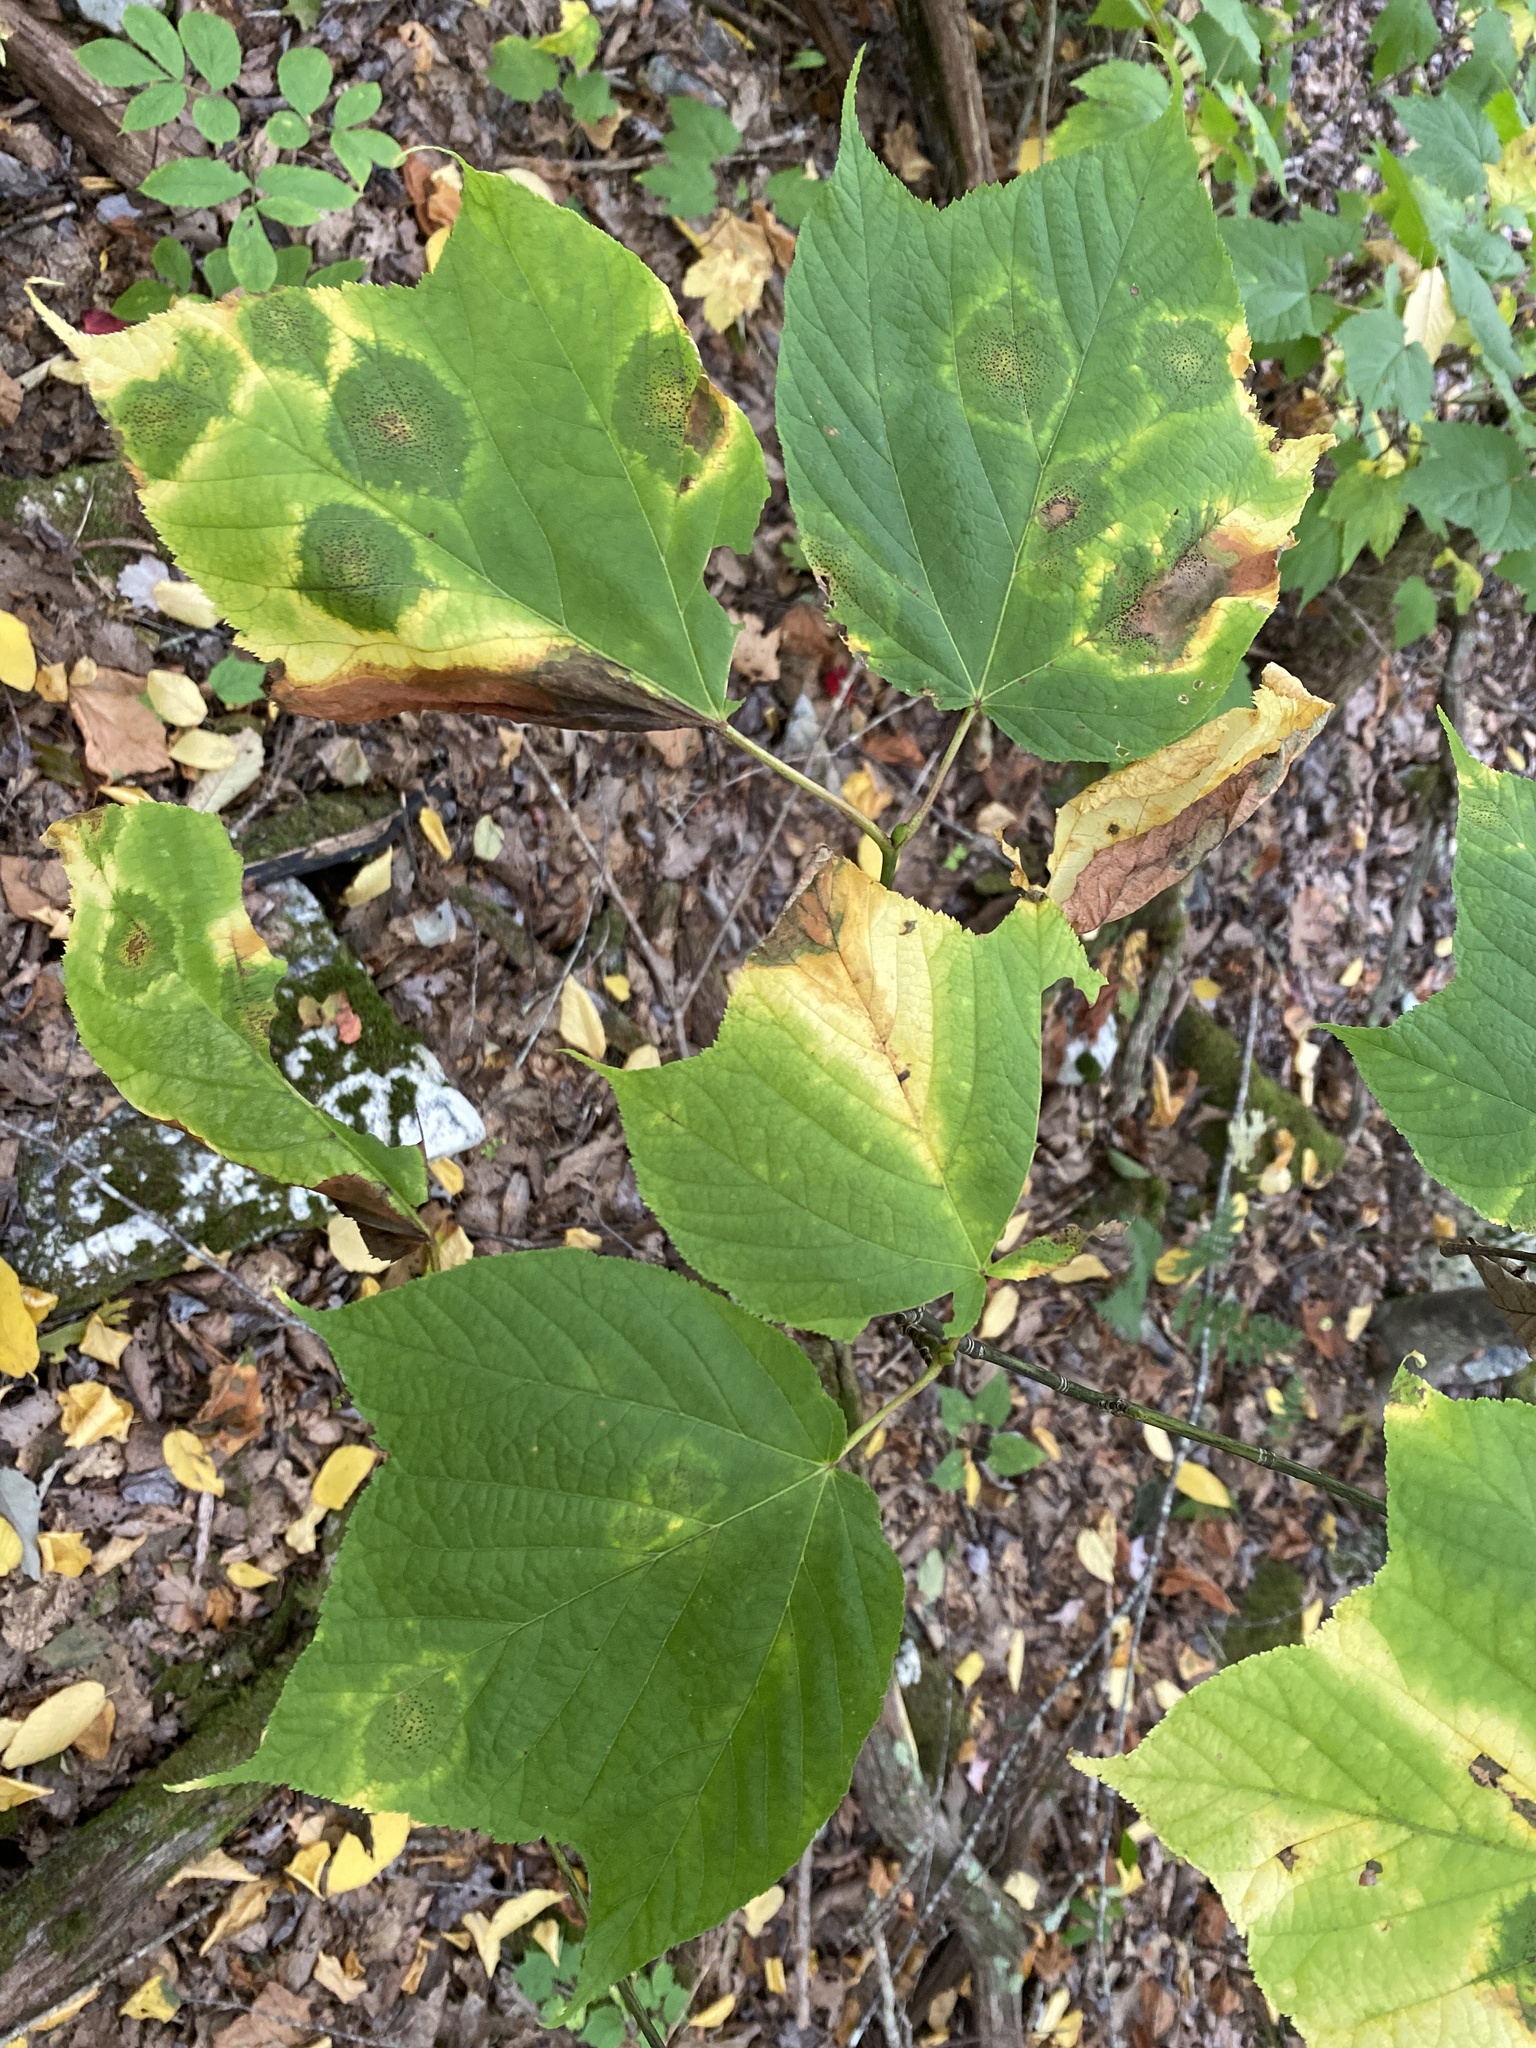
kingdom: Plantae
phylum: Tracheophyta
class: Magnoliopsida
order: Sapindales
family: Sapindaceae
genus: Acer
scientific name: Acer pensylvanicum
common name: Moosewood
